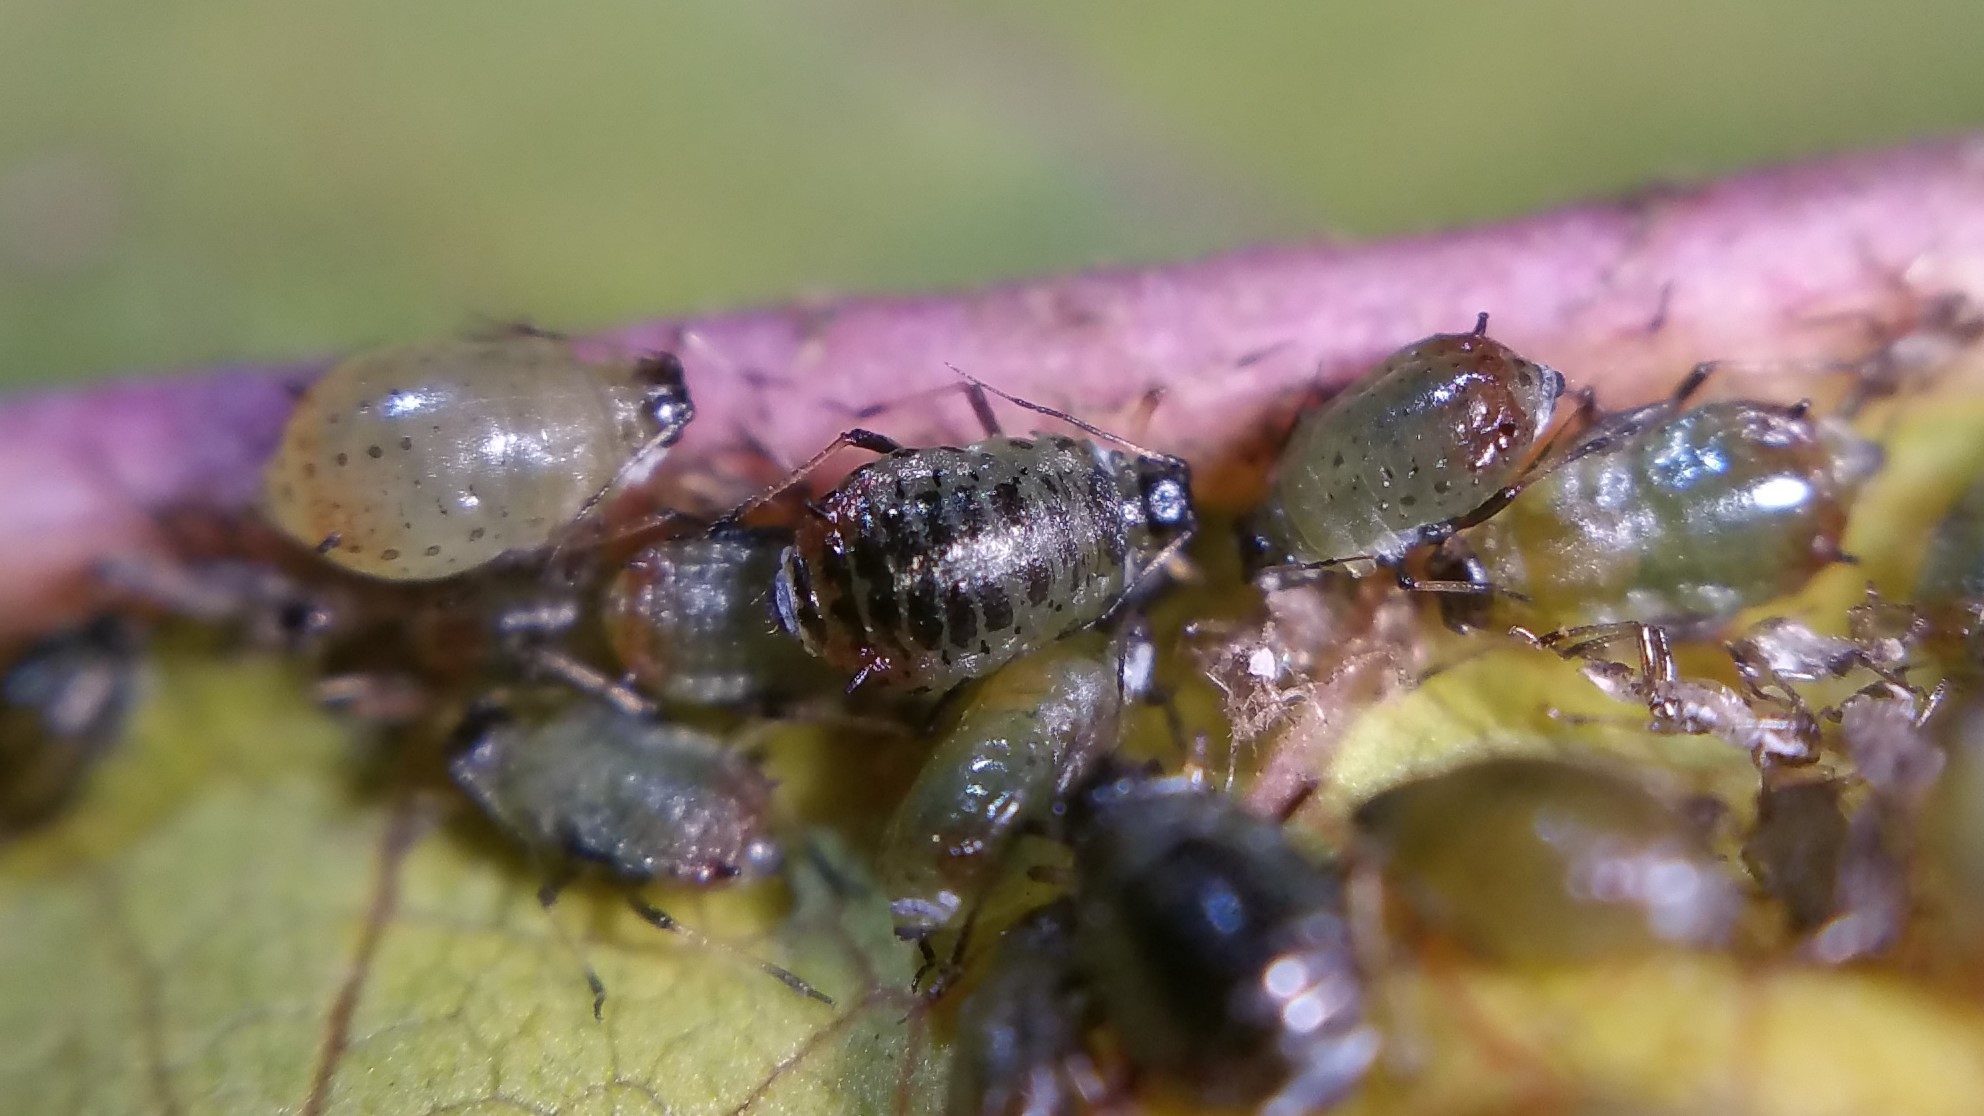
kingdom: Animalia
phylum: Arthropoda
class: Insecta
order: Hemiptera
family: Aphididae
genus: Brachycaudus
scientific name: Brachycaudus schwartzi
